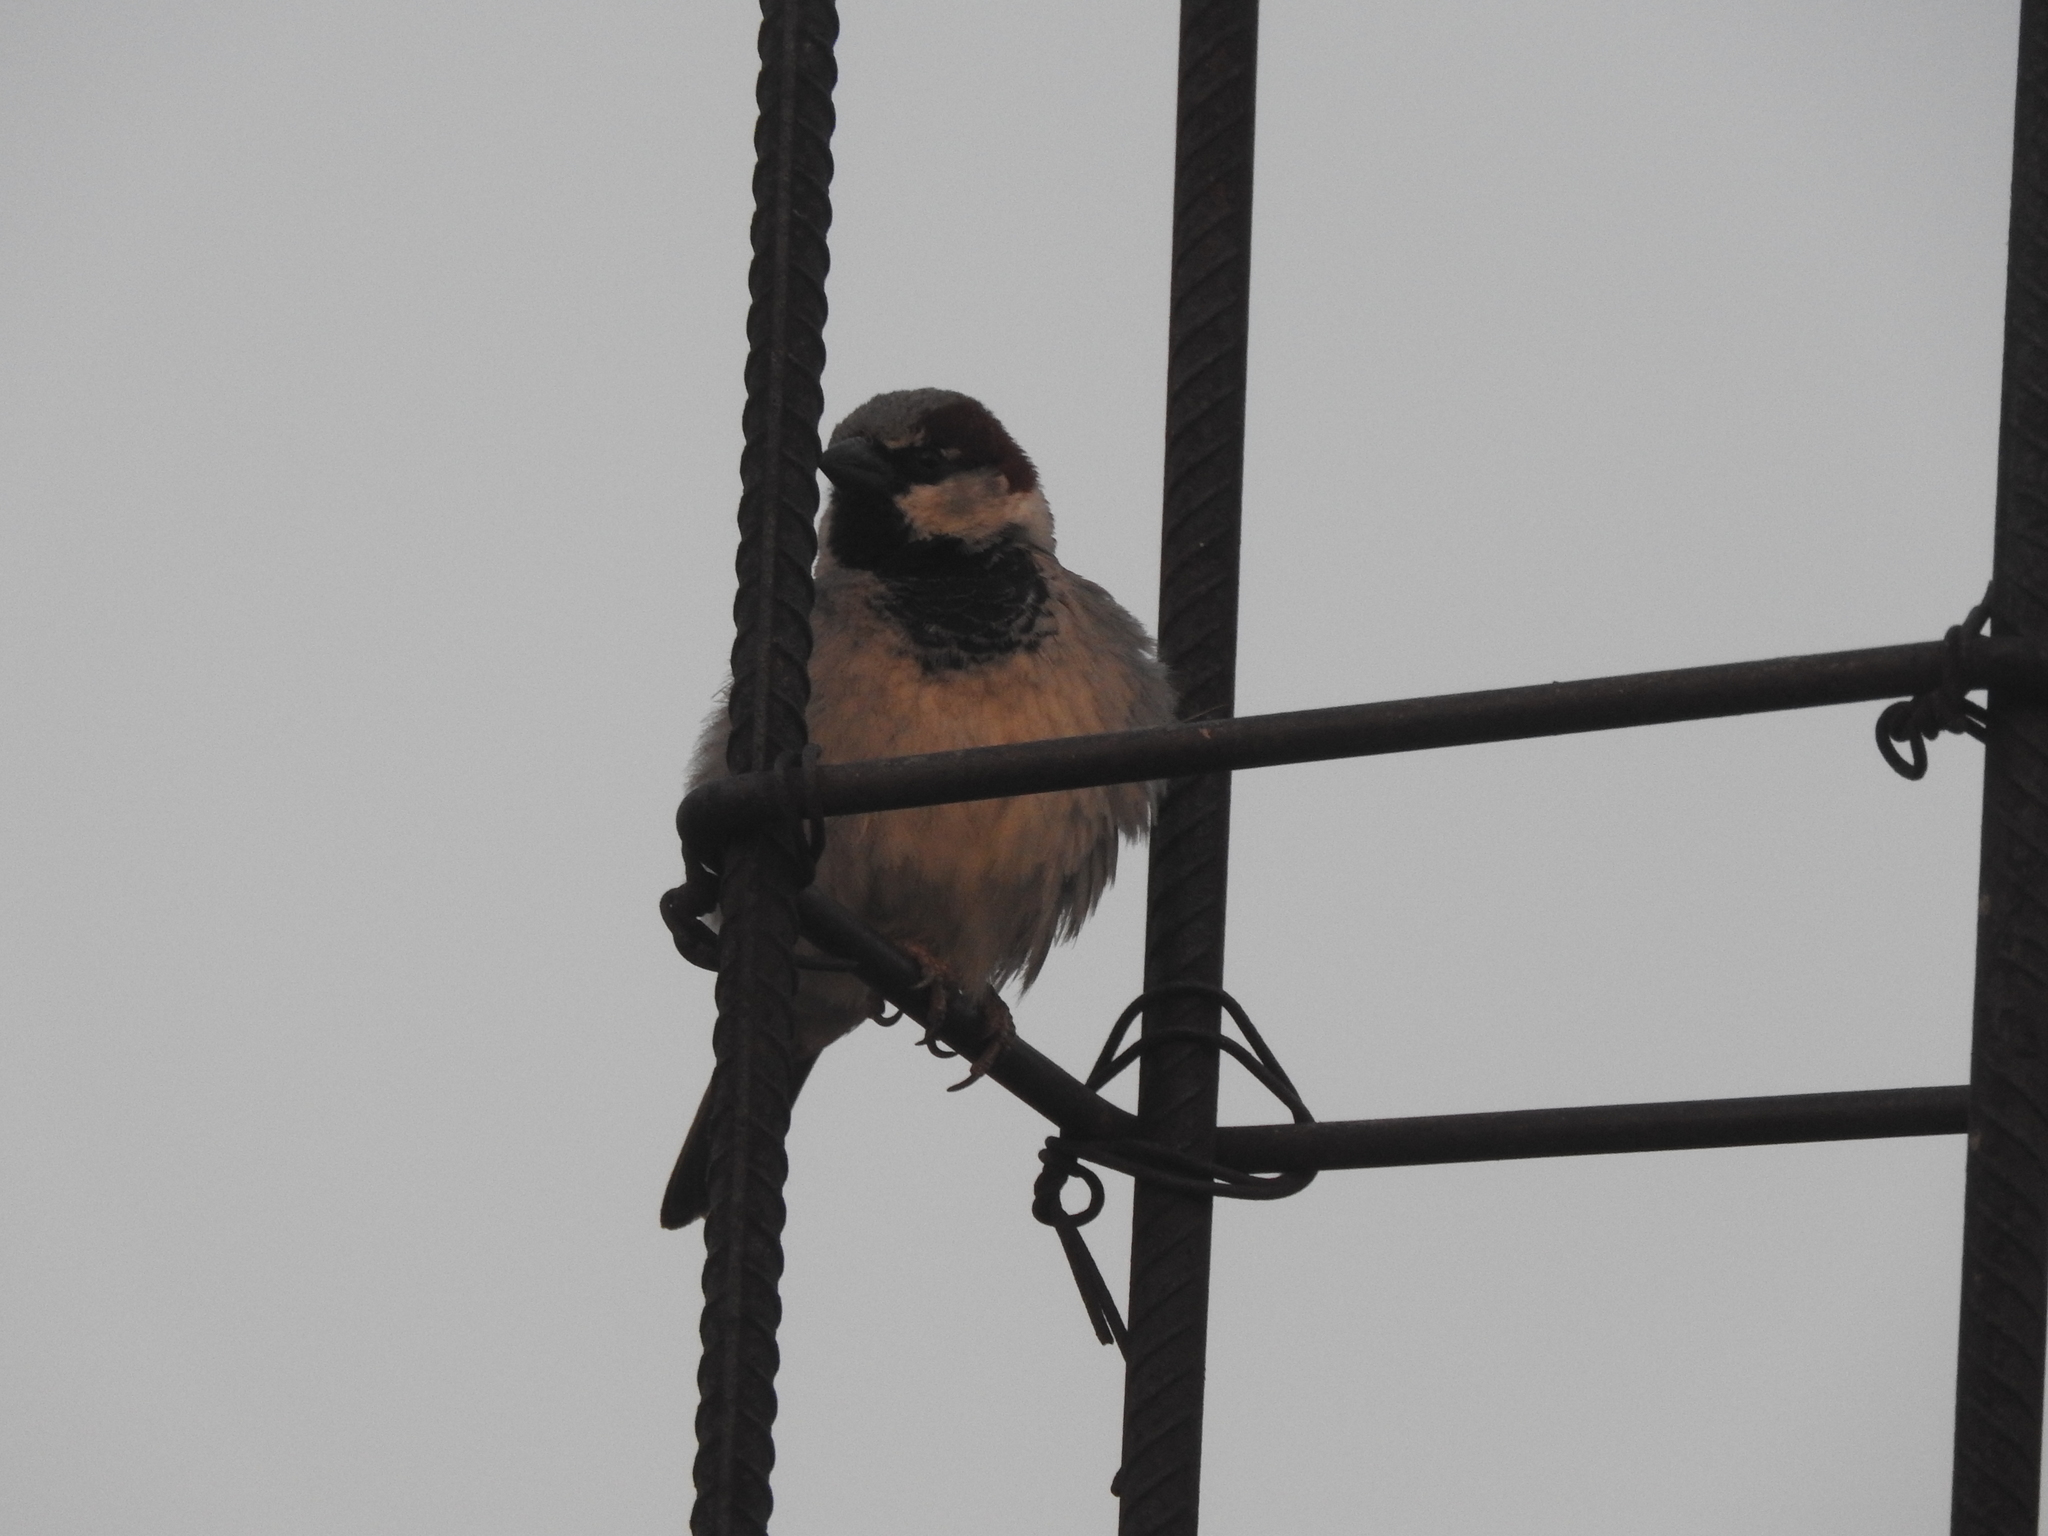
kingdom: Animalia
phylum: Chordata
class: Aves
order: Passeriformes
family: Passeridae
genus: Passer
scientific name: Passer domesticus
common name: House sparrow
